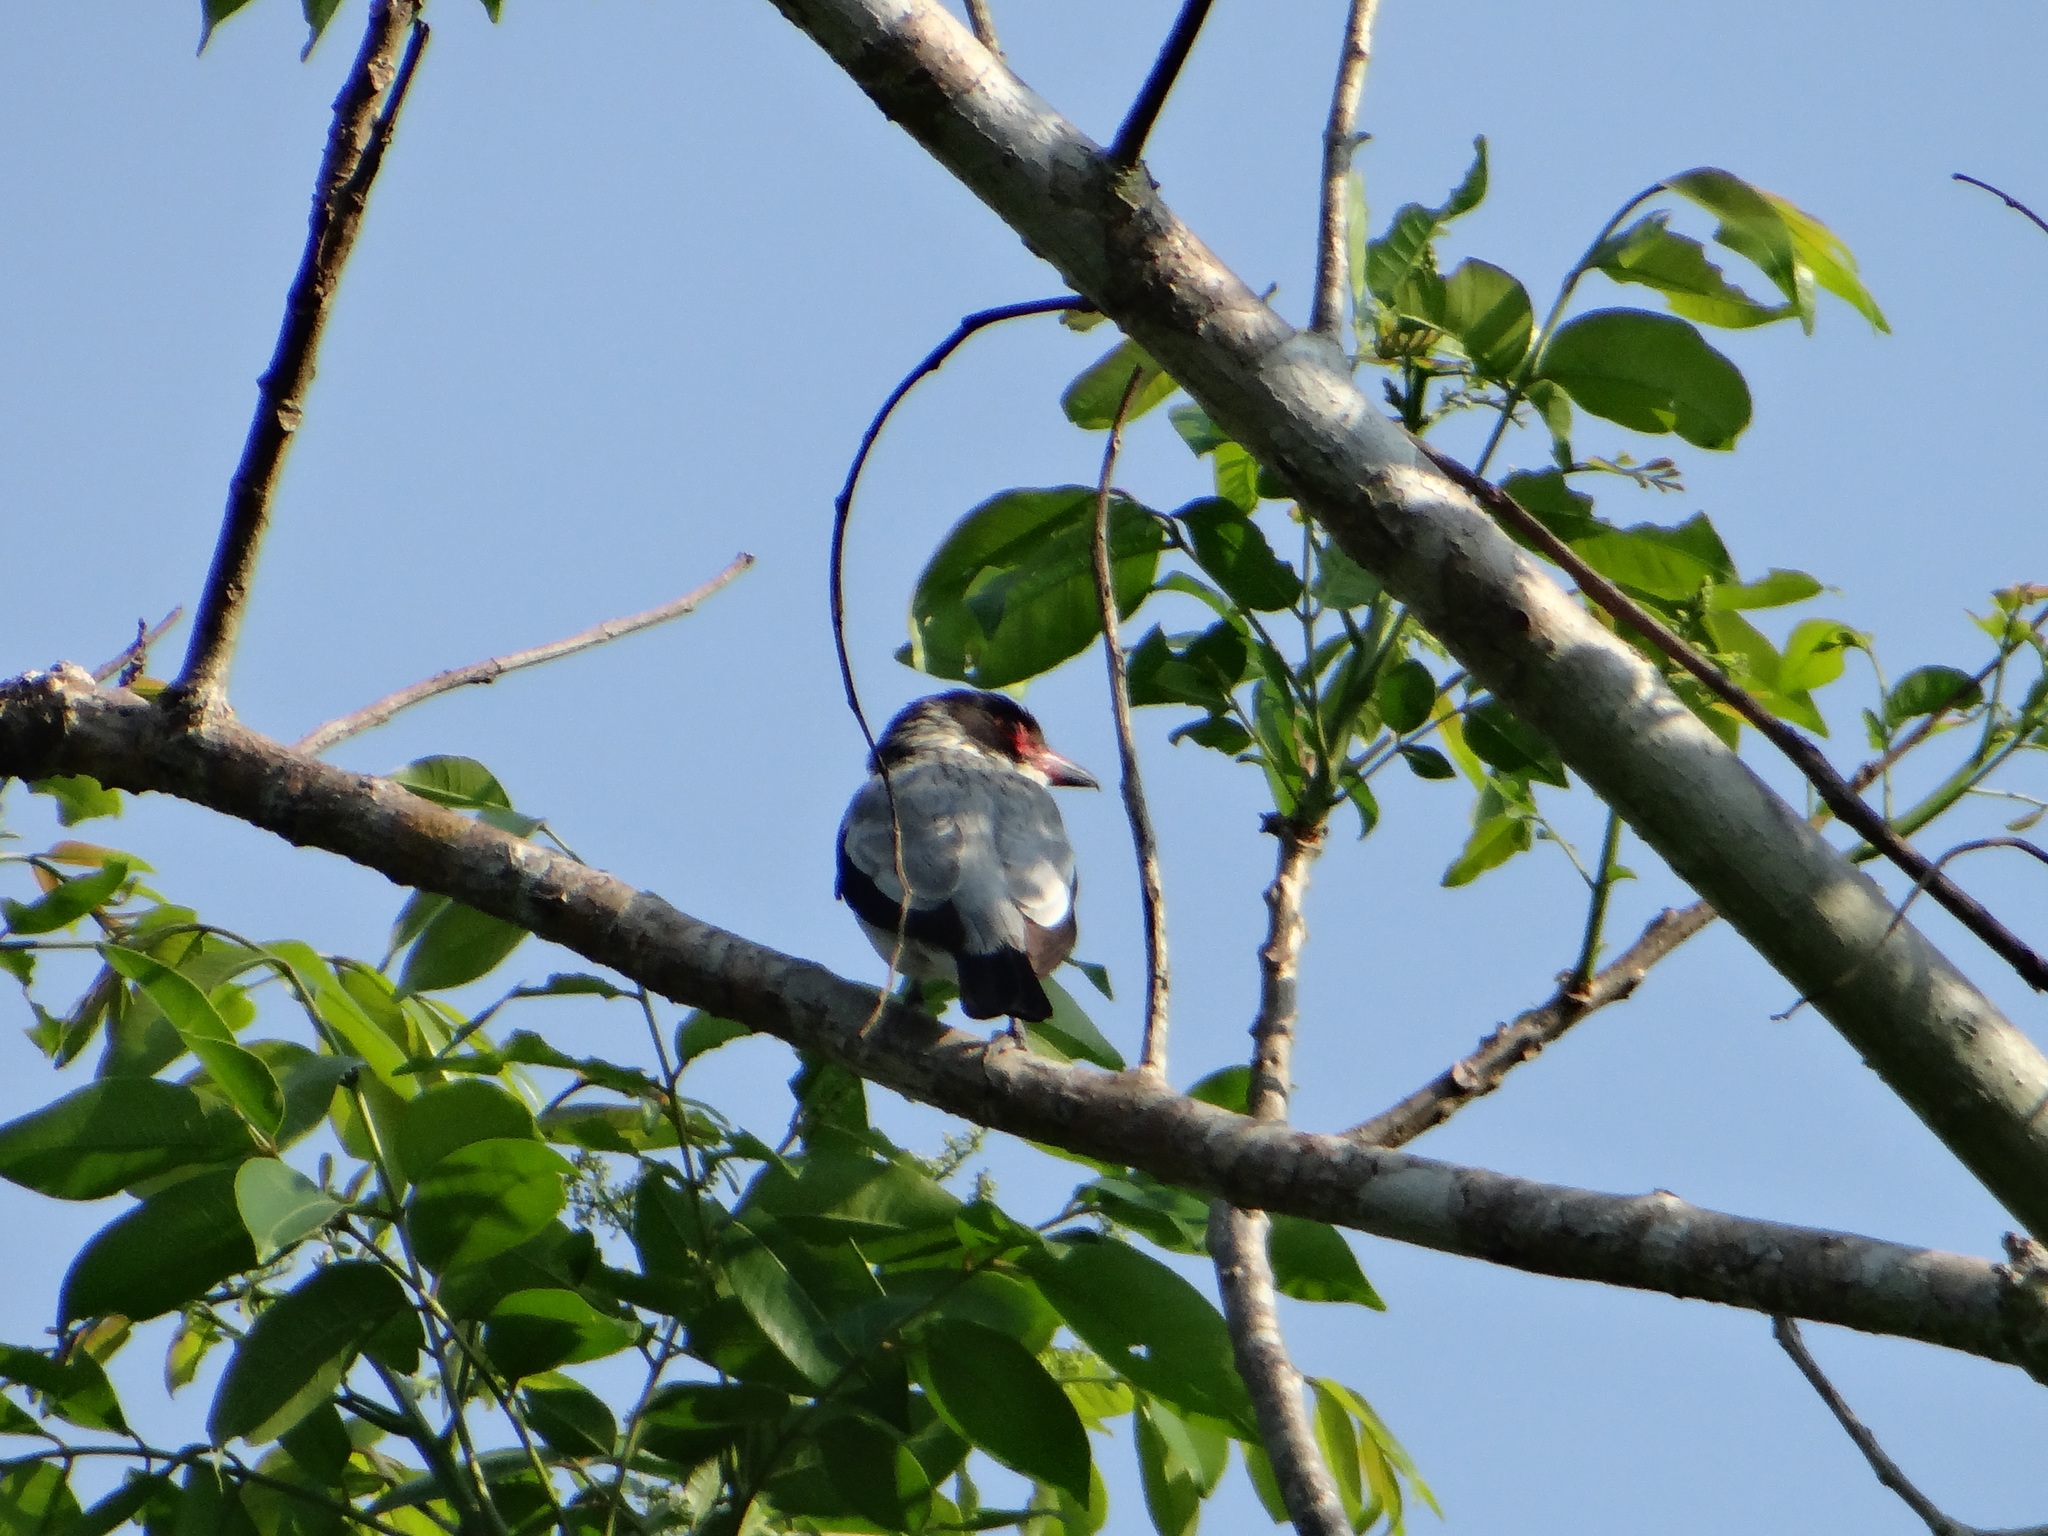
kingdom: Animalia
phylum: Chordata
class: Aves
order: Passeriformes
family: Cotingidae
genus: Tityra
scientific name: Tityra cayana
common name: Black-tailed tityra
